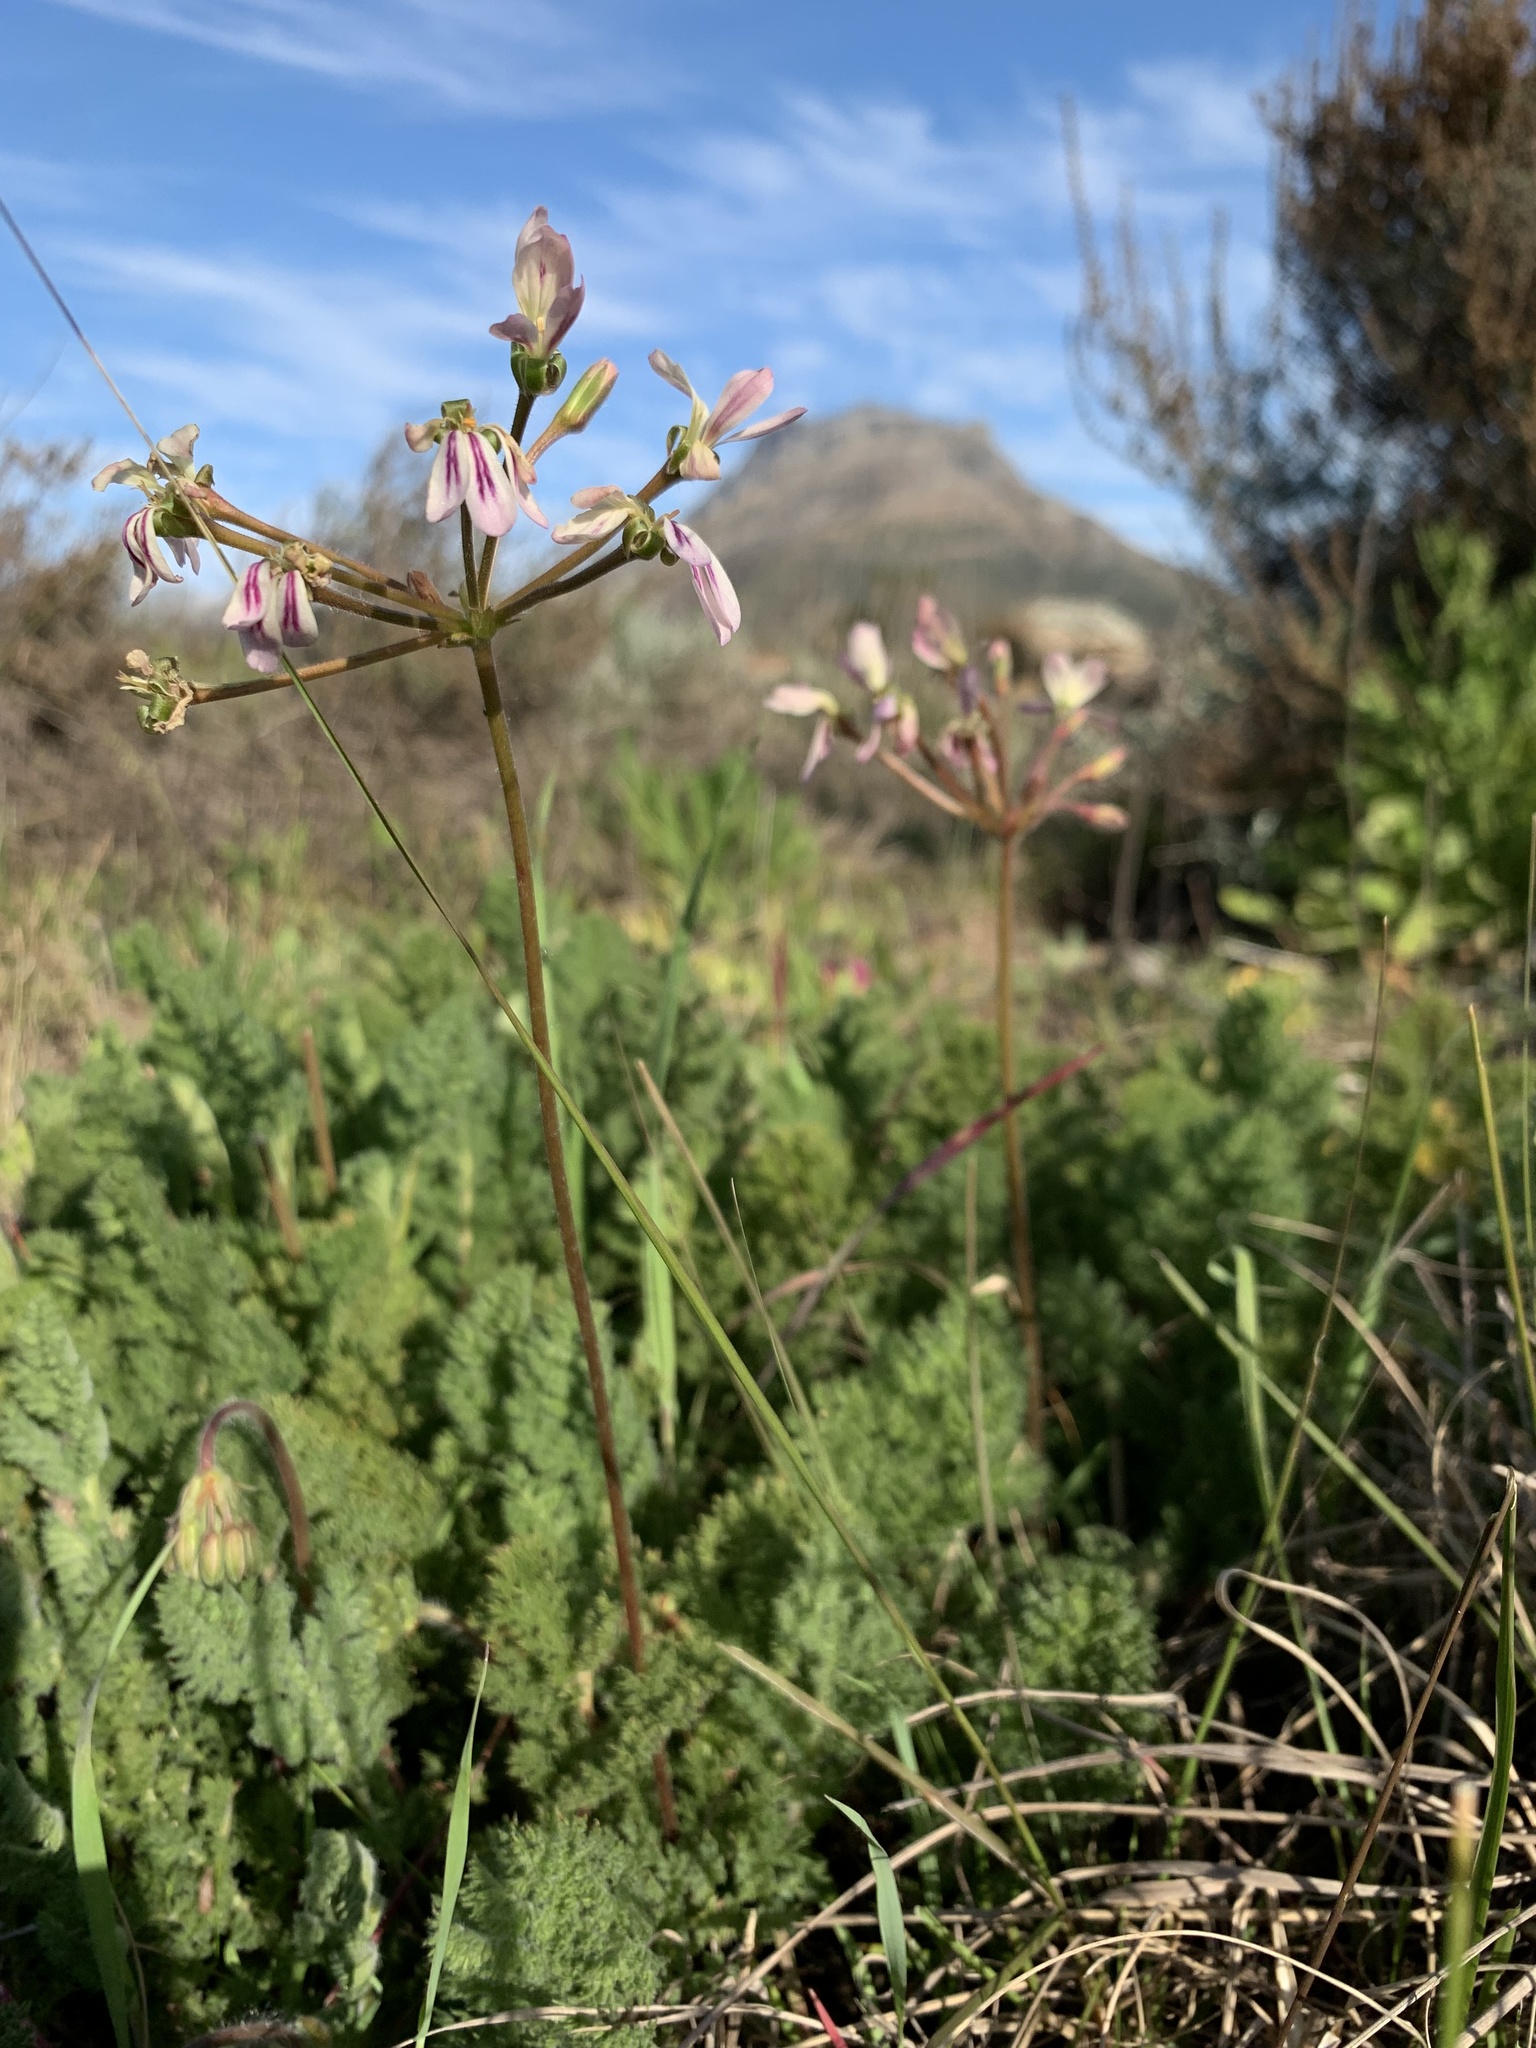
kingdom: Plantae
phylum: Tracheophyta
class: Magnoliopsida
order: Geraniales
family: Geraniaceae
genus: Pelargonium
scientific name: Pelargonium triste
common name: Night-scent pelargonium
